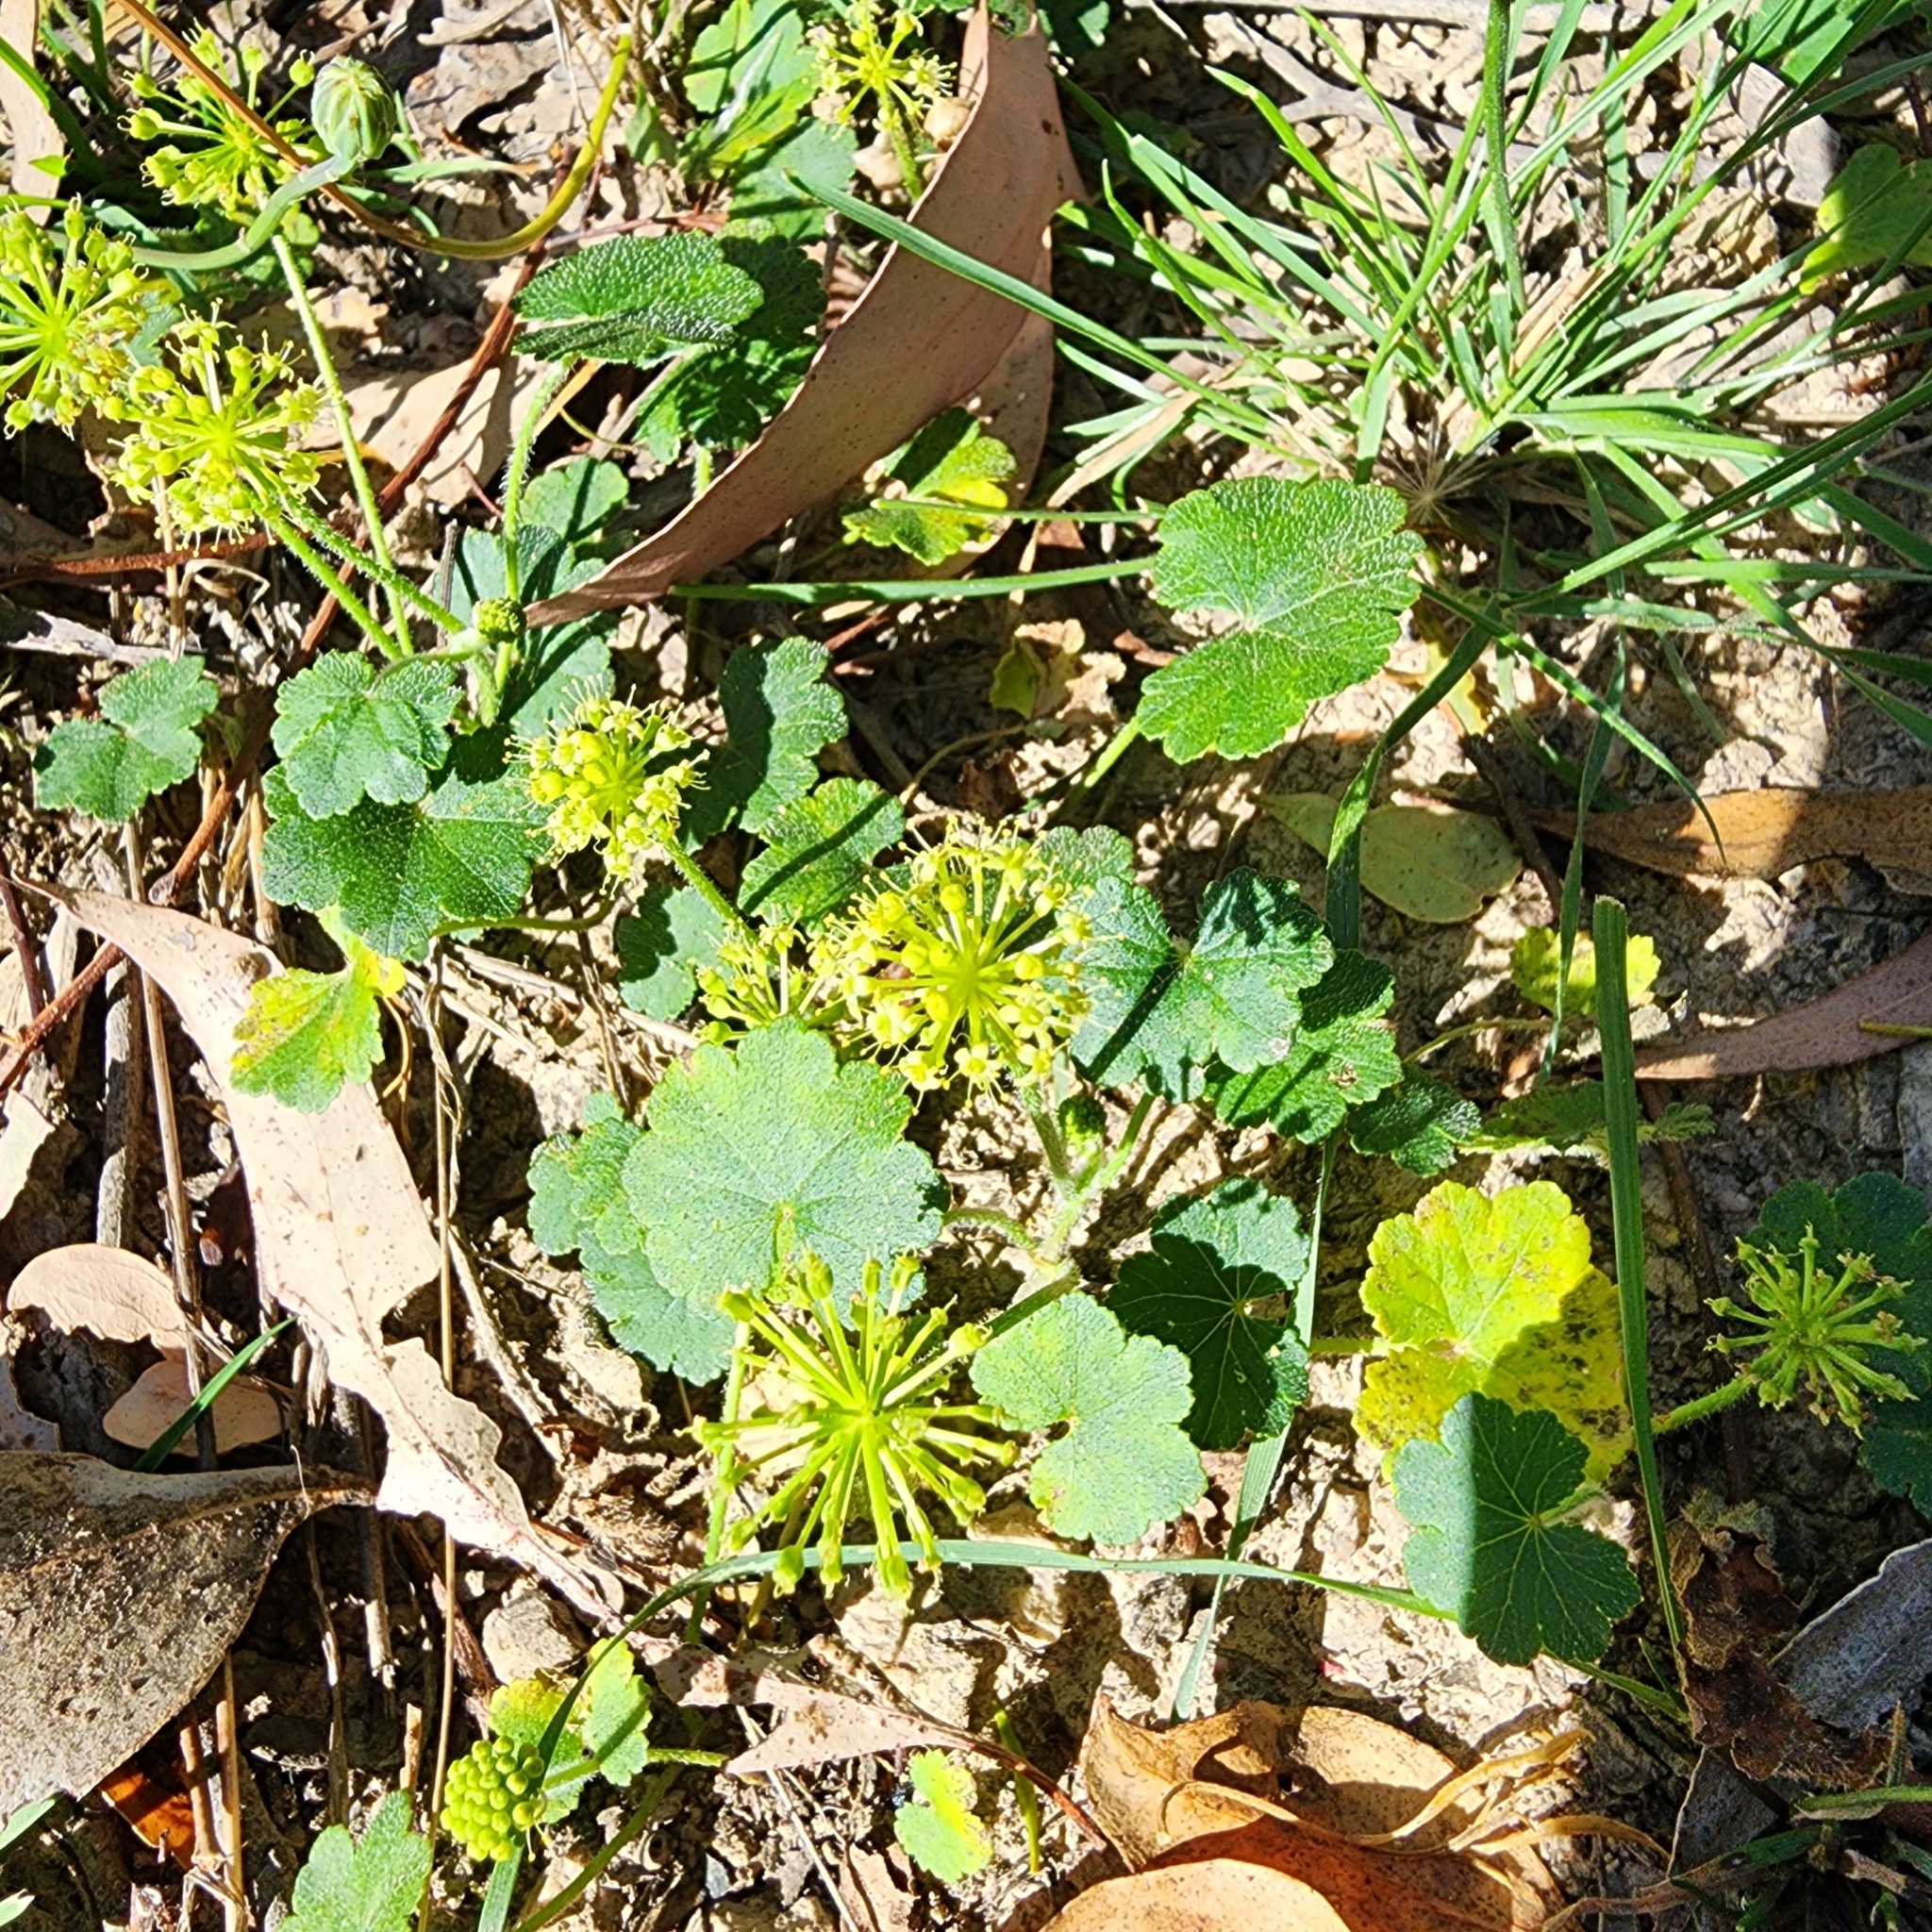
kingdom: Plantae
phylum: Tracheophyta
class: Magnoliopsida
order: Apiales
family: Araliaceae
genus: Hydrocotyle
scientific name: Hydrocotyle laxiflora
